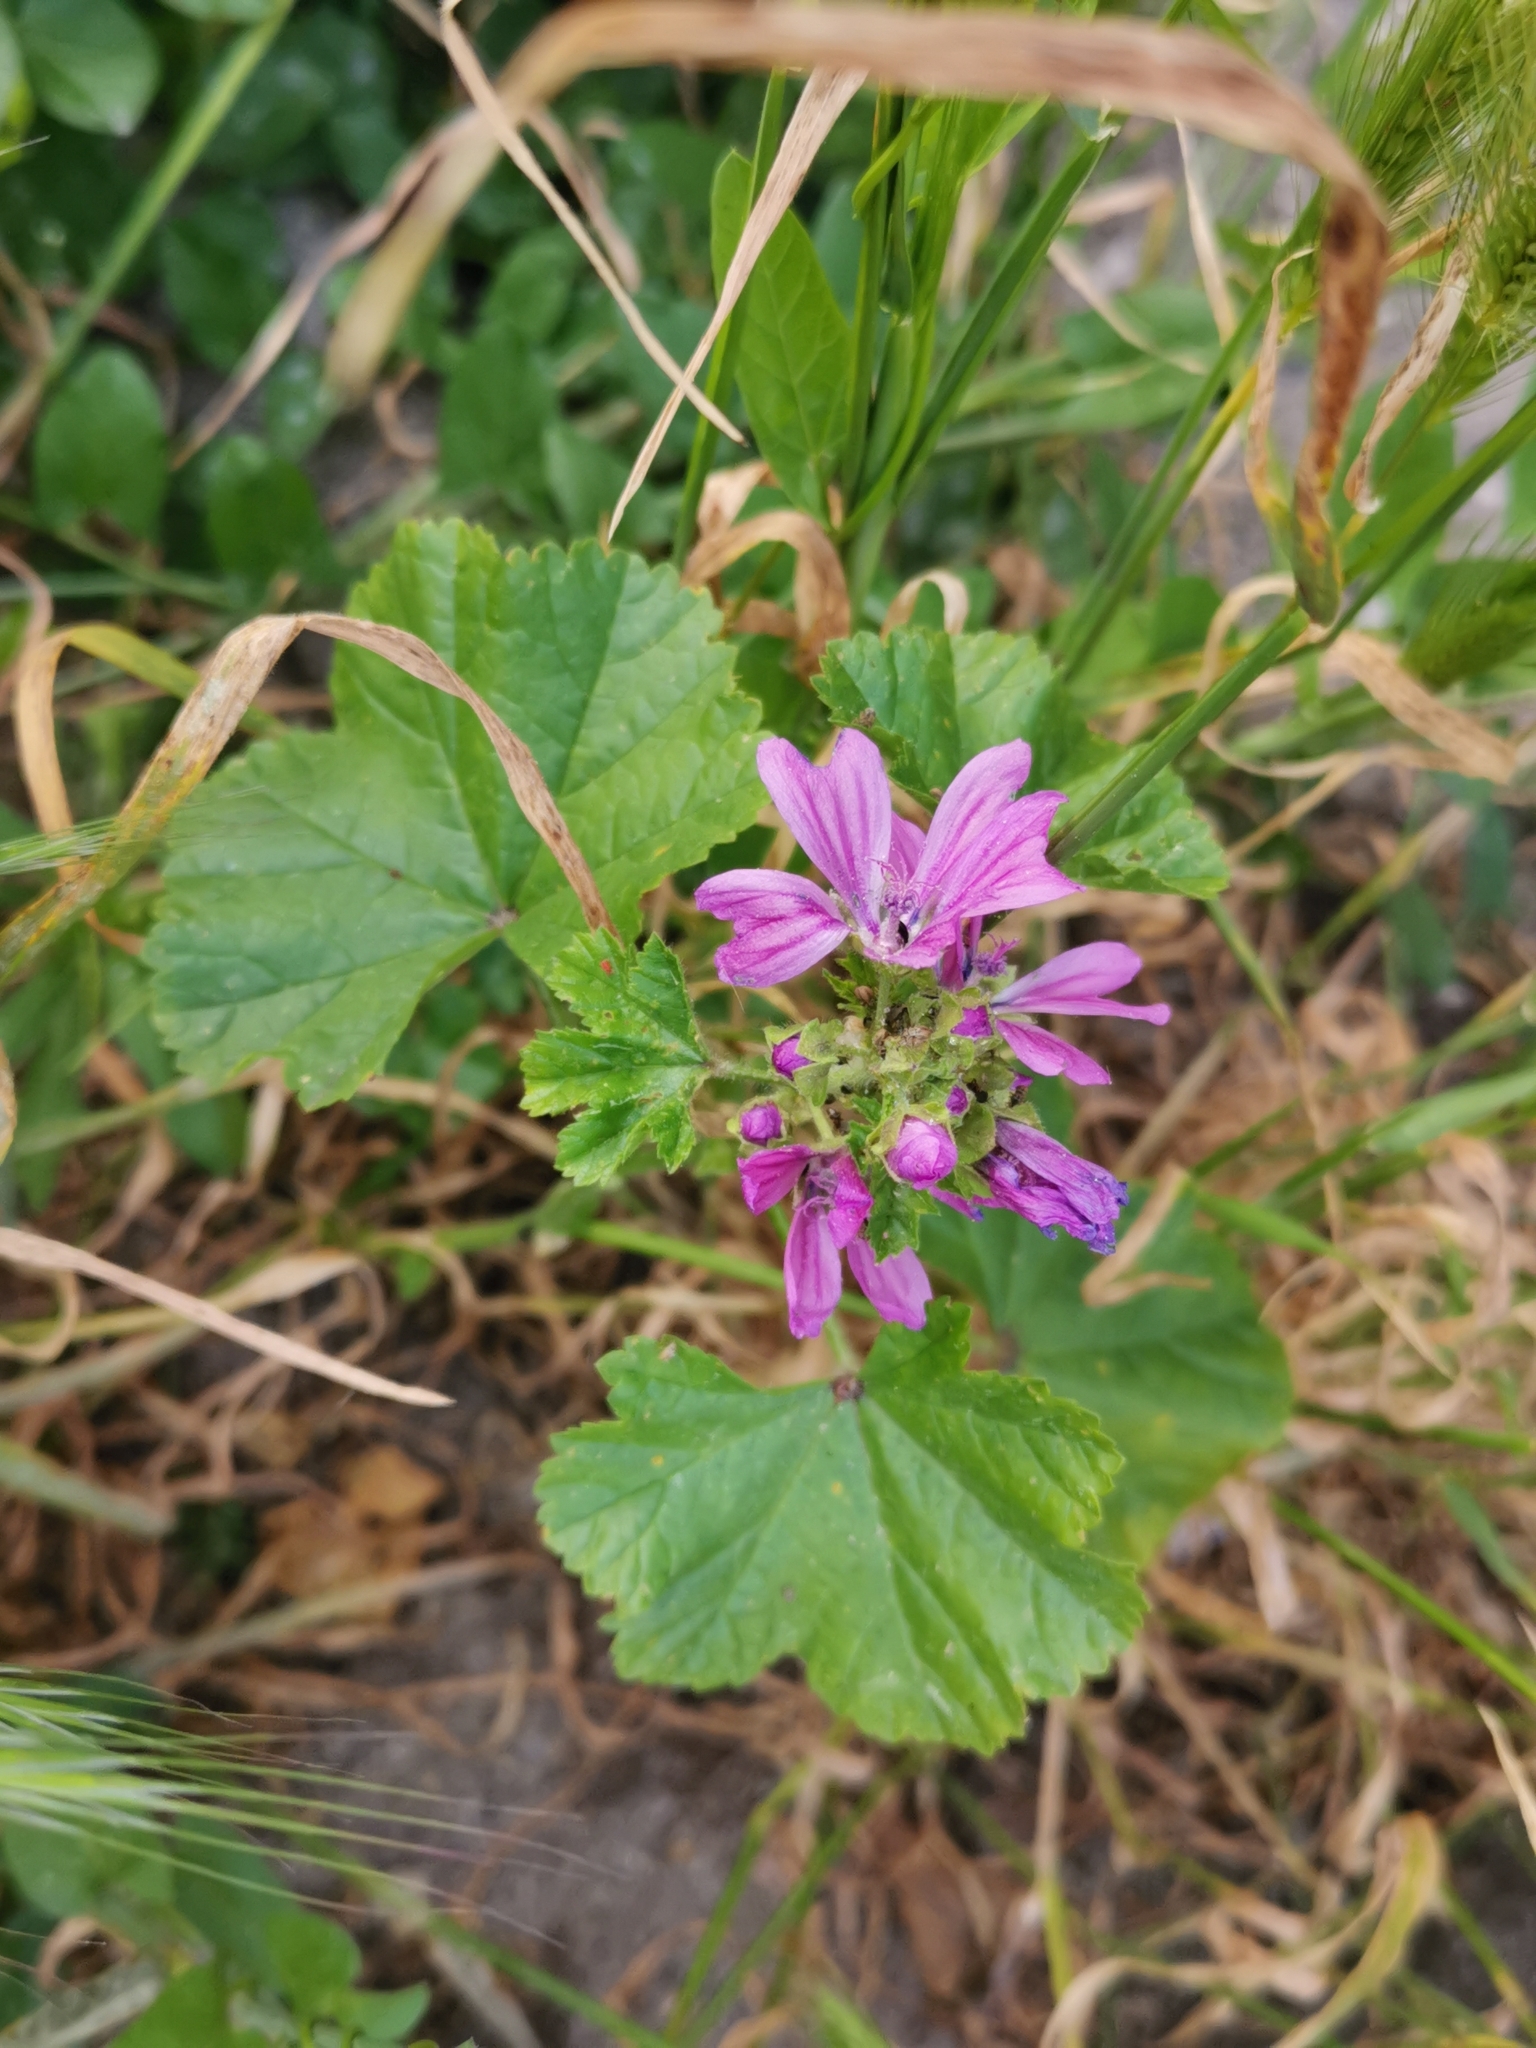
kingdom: Plantae
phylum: Tracheophyta
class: Magnoliopsida
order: Malvales
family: Malvaceae
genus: Malva
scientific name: Malva sylvestris
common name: Common mallow
